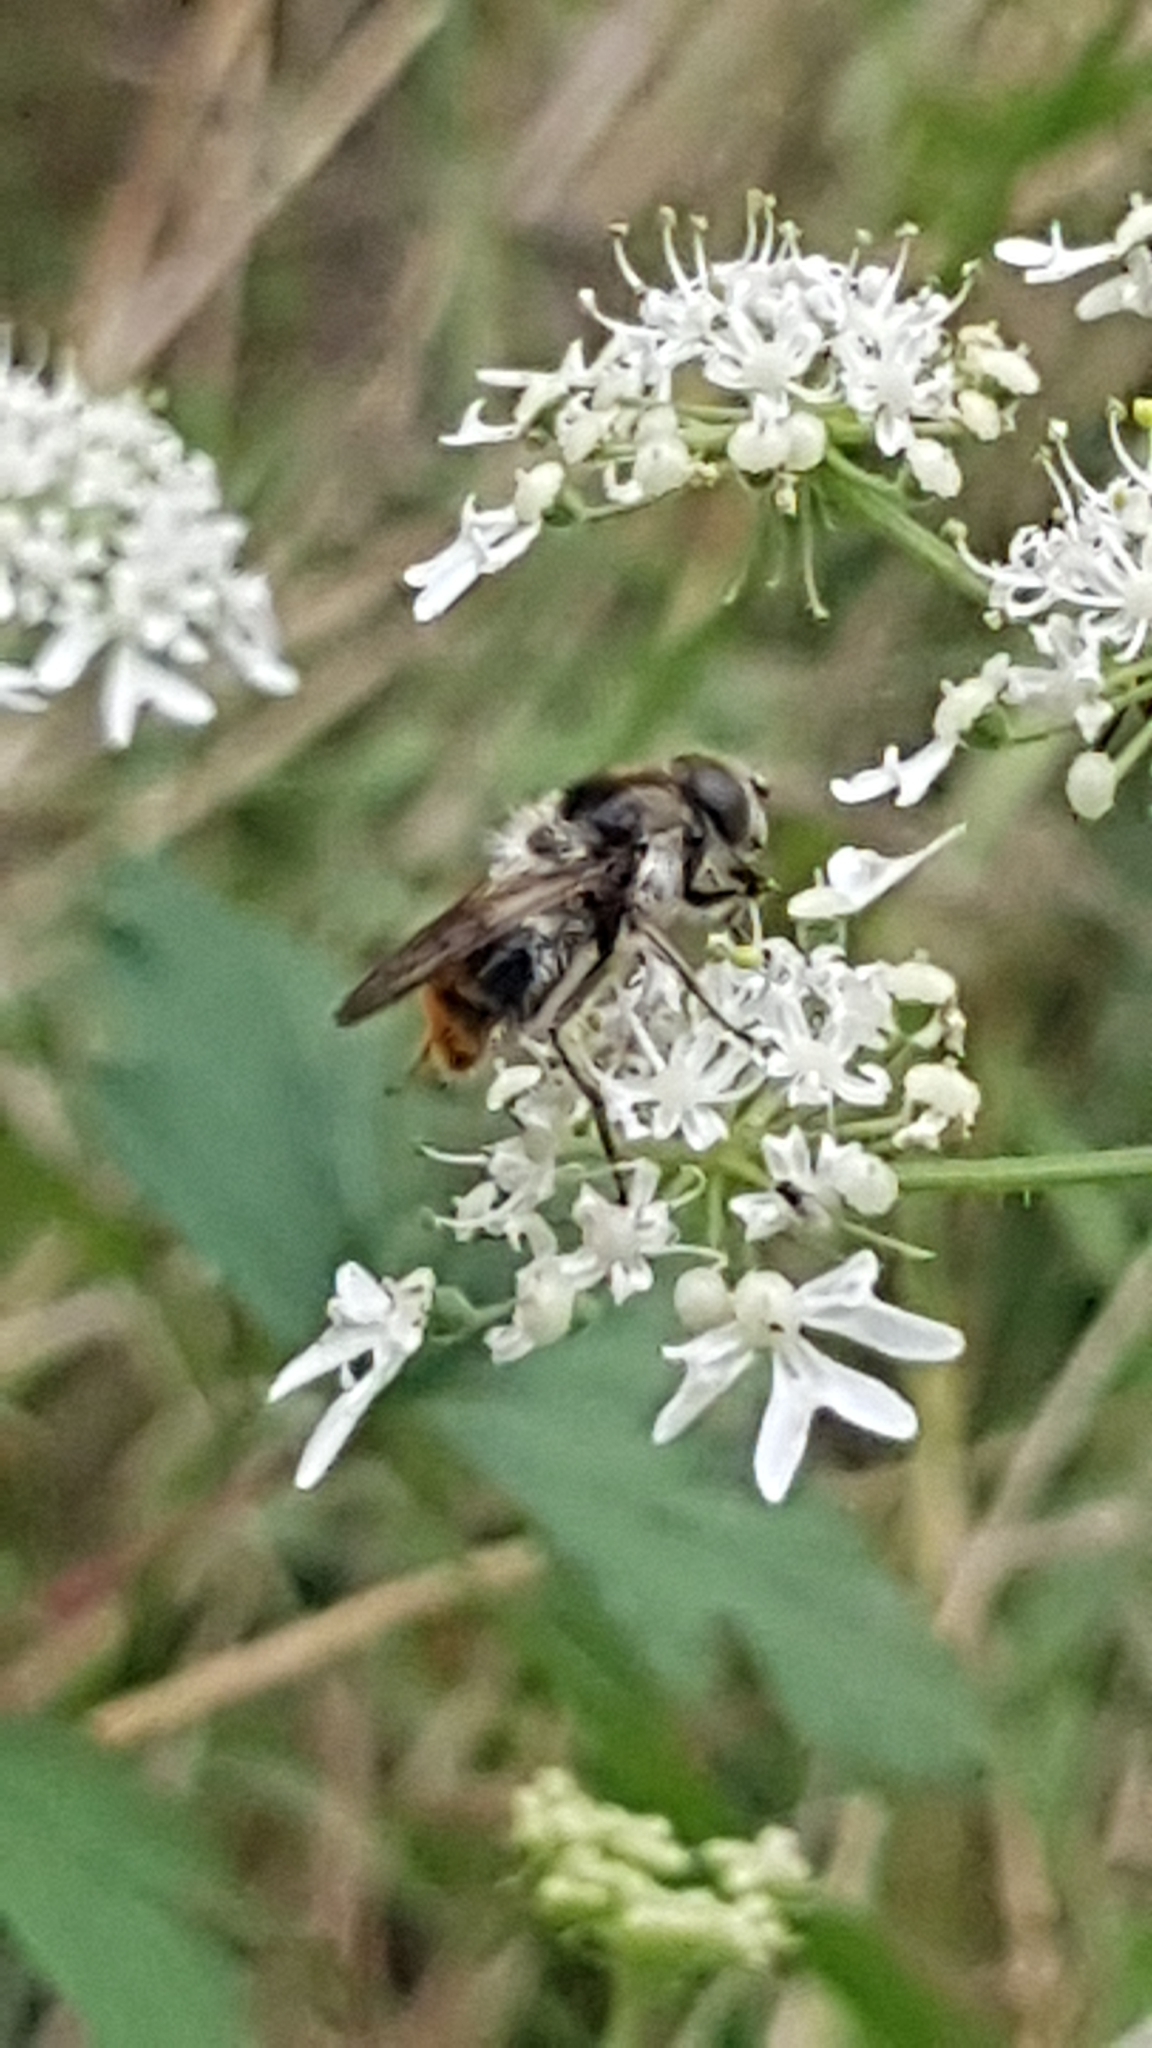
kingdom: Animalia
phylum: Arthropoda
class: Insecta
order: Diptera
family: Syrphidae
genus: Cheilosia
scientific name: Cheilosia illustrata
